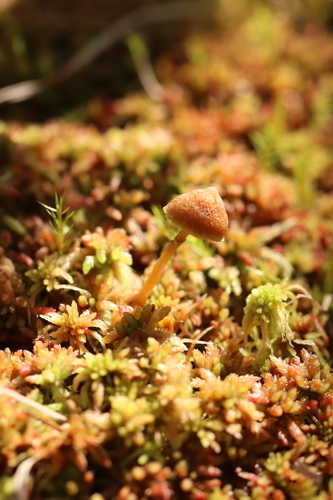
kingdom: Fungi
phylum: Basidiomycota
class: Agaricomycetes
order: Agaricales
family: Hymenogastraceae
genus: Galerina
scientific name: Galerina paludosa
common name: Bog bell
